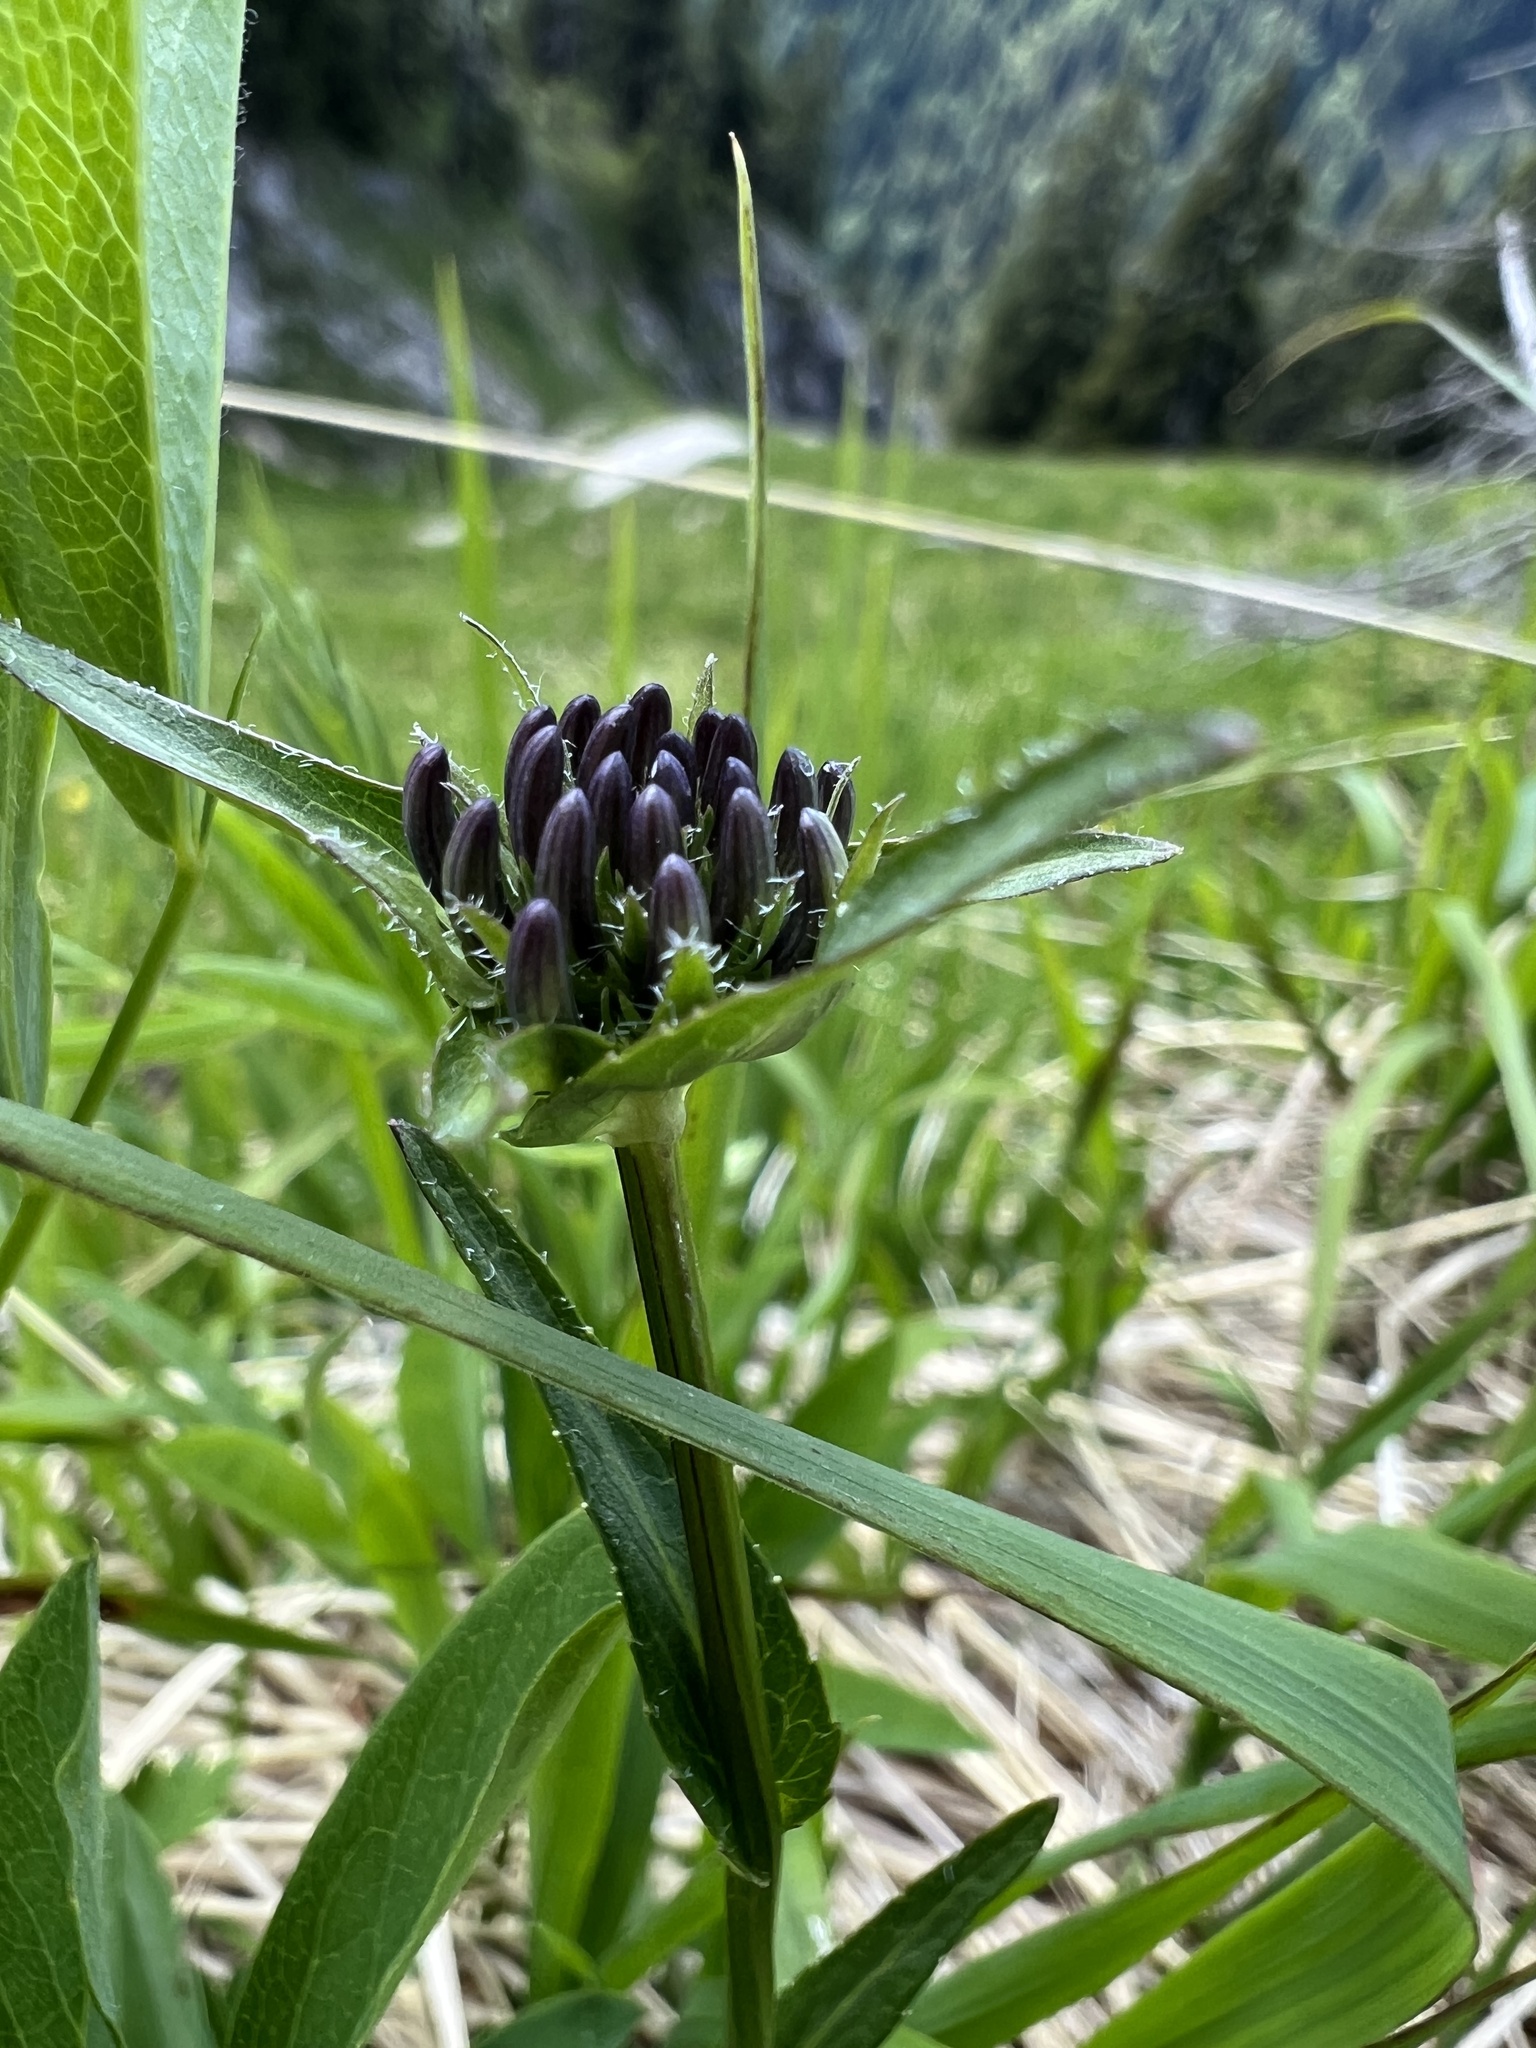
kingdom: Plantae
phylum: Tracheophyta
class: Magnoliopsida
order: Asterales
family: Campanulaceae
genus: Phyteuma
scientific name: Phyteuma orbiculare
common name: Round-headed rampion
